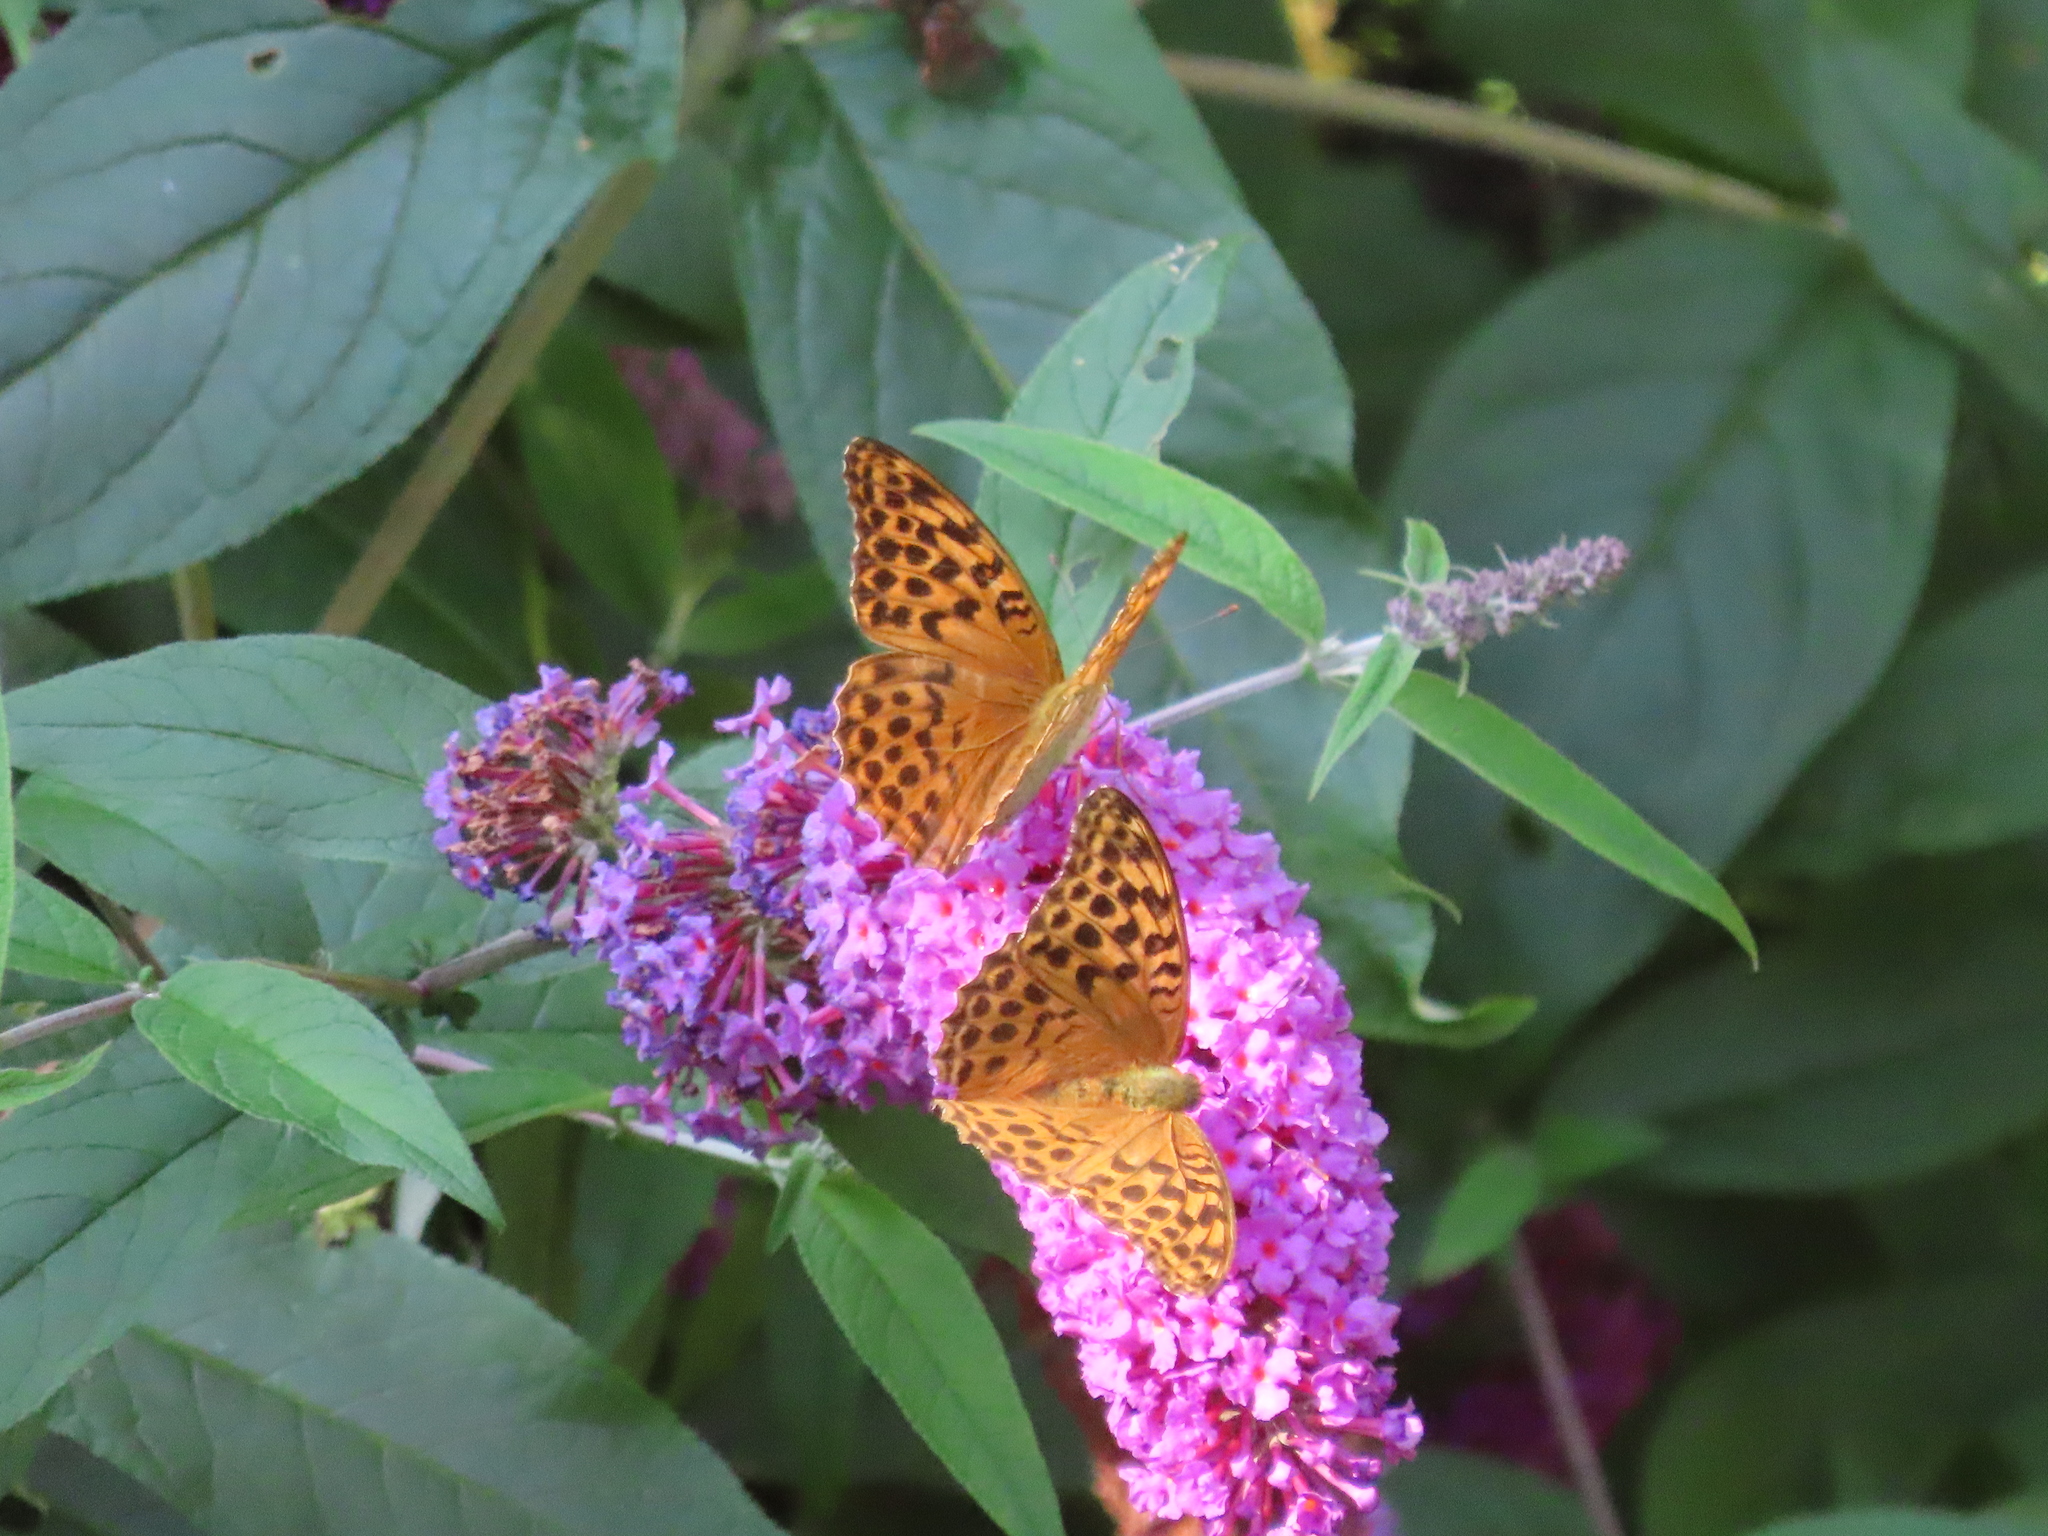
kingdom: Animalia
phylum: Arthropoda
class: Insecta
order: Lepidoptera
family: Nymphalidae
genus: Argynnis
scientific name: Argynnis paphia
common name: Silver-washed fritillary
